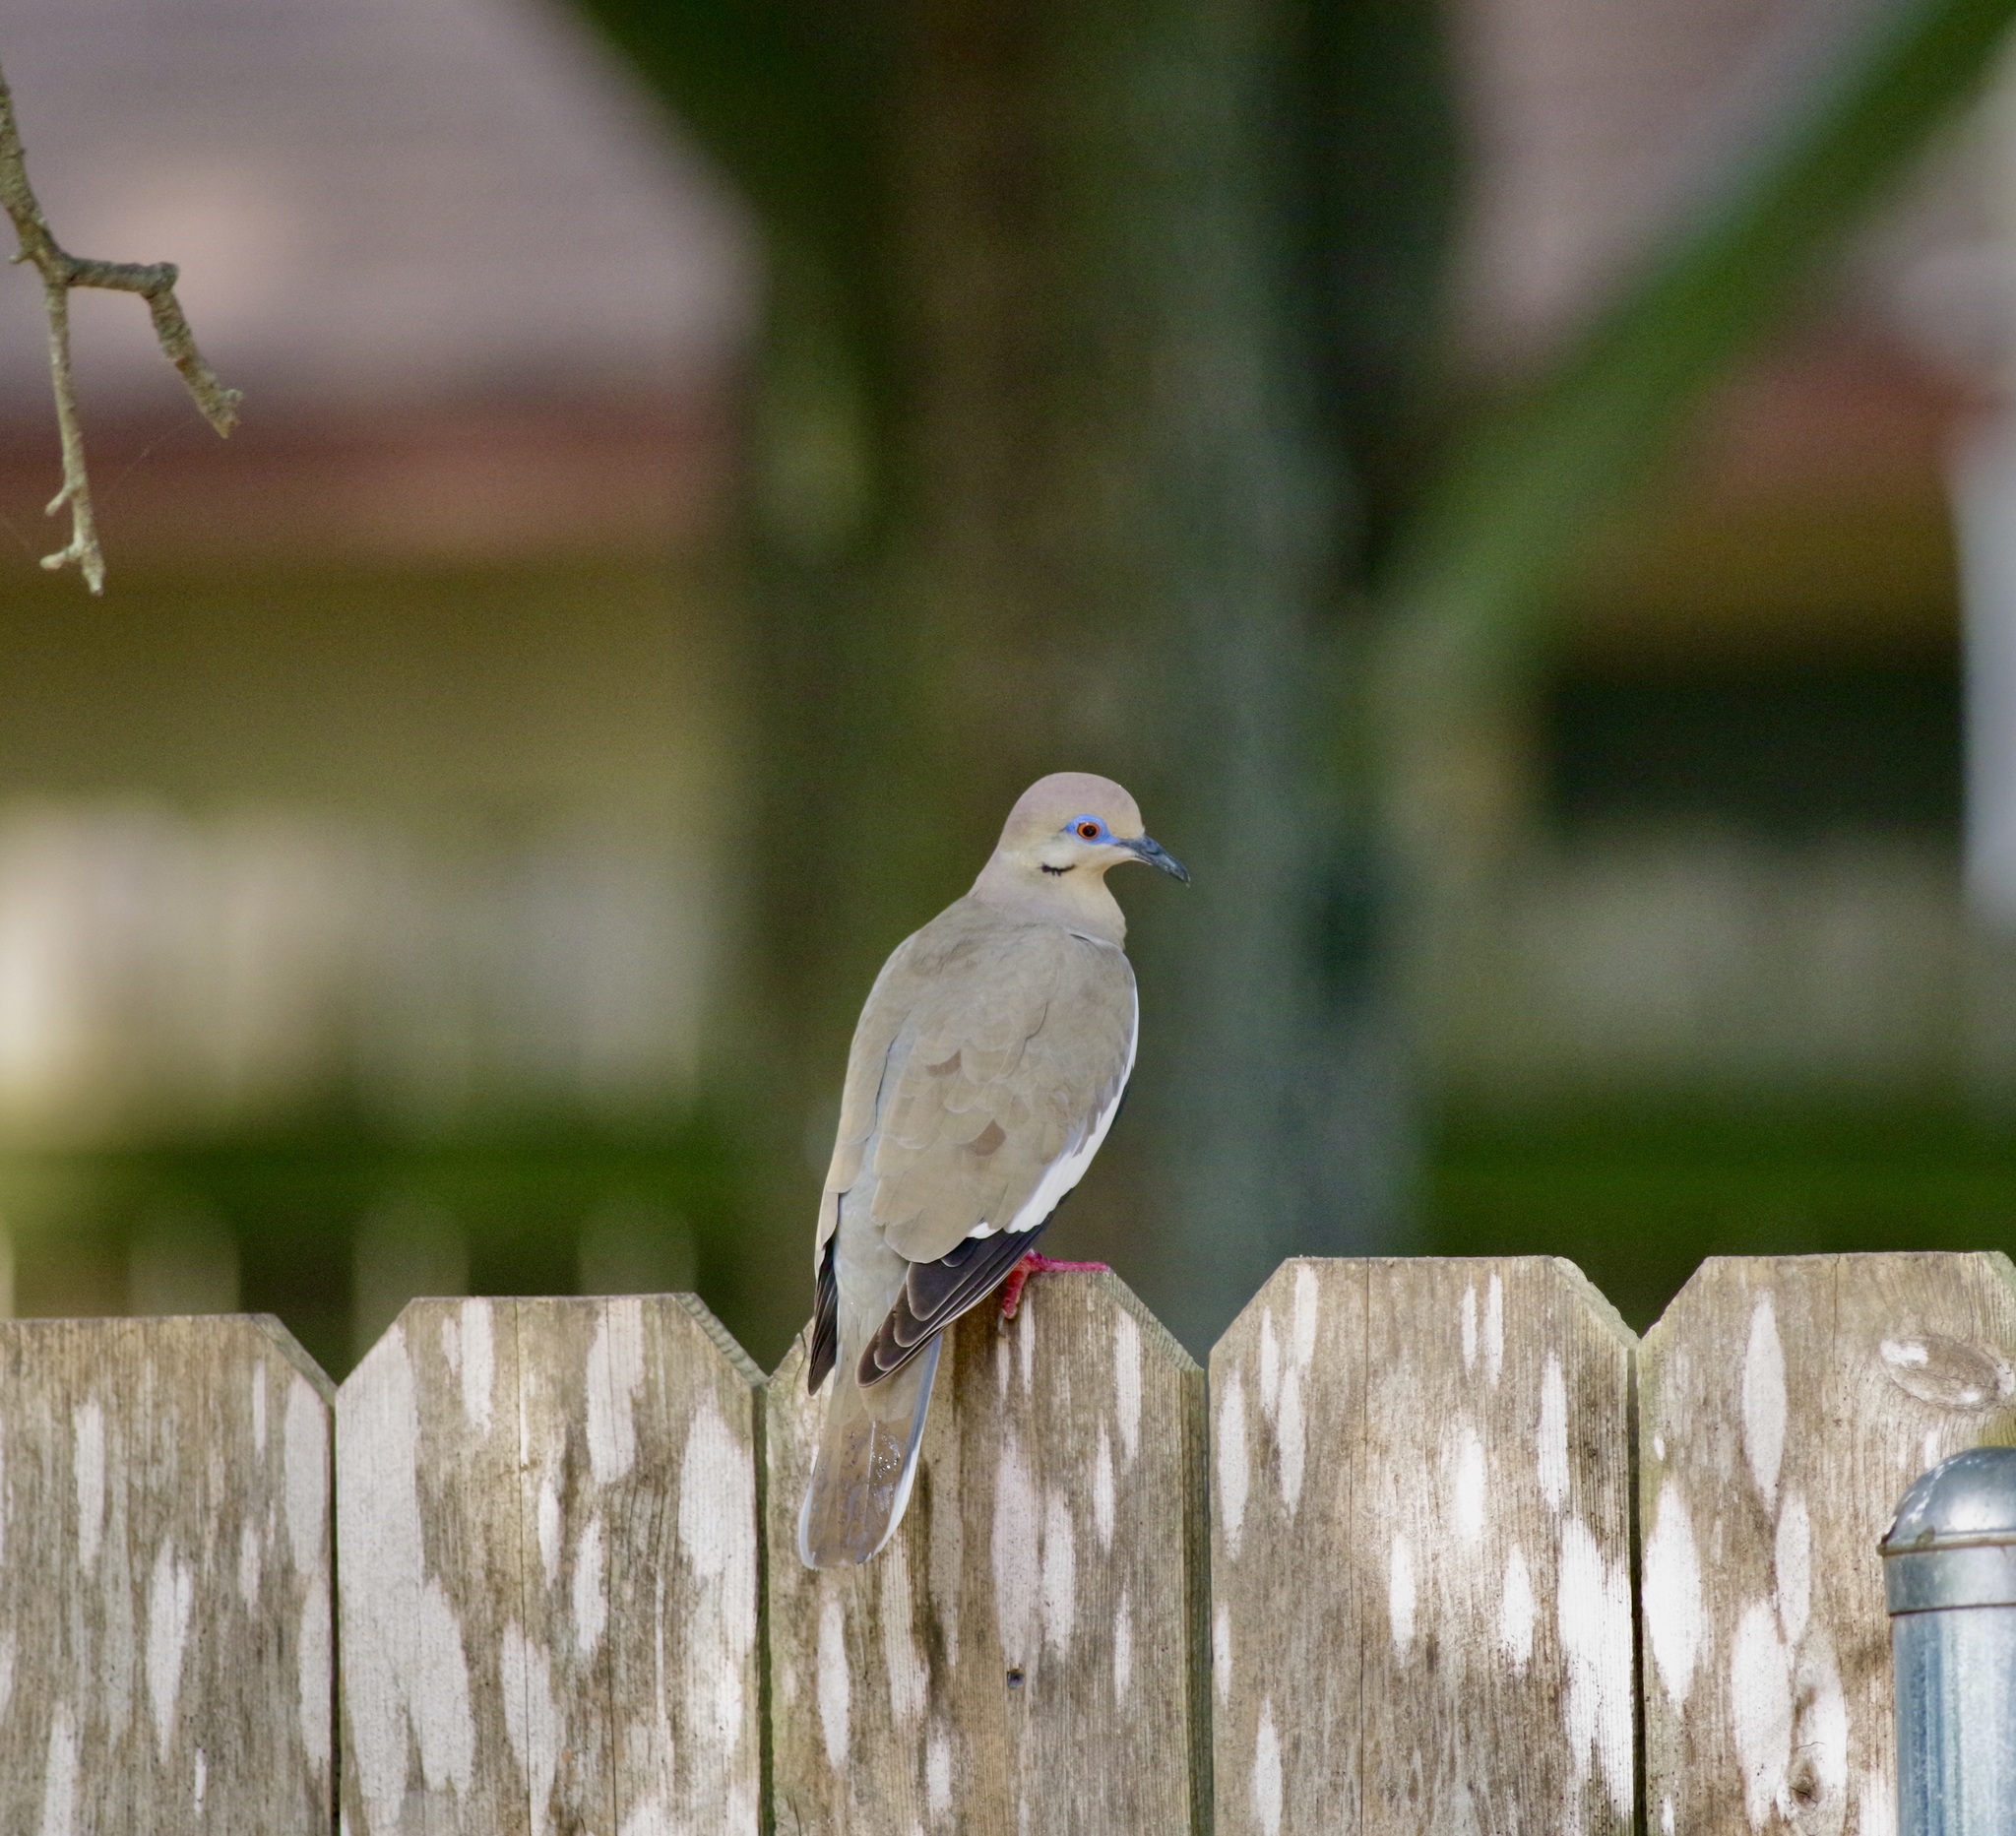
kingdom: Animalia
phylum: Chordata
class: Aves
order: Columbiformes
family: Columbidae
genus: Zenaida
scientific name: Zenaida asiatica
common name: White-winged dove
